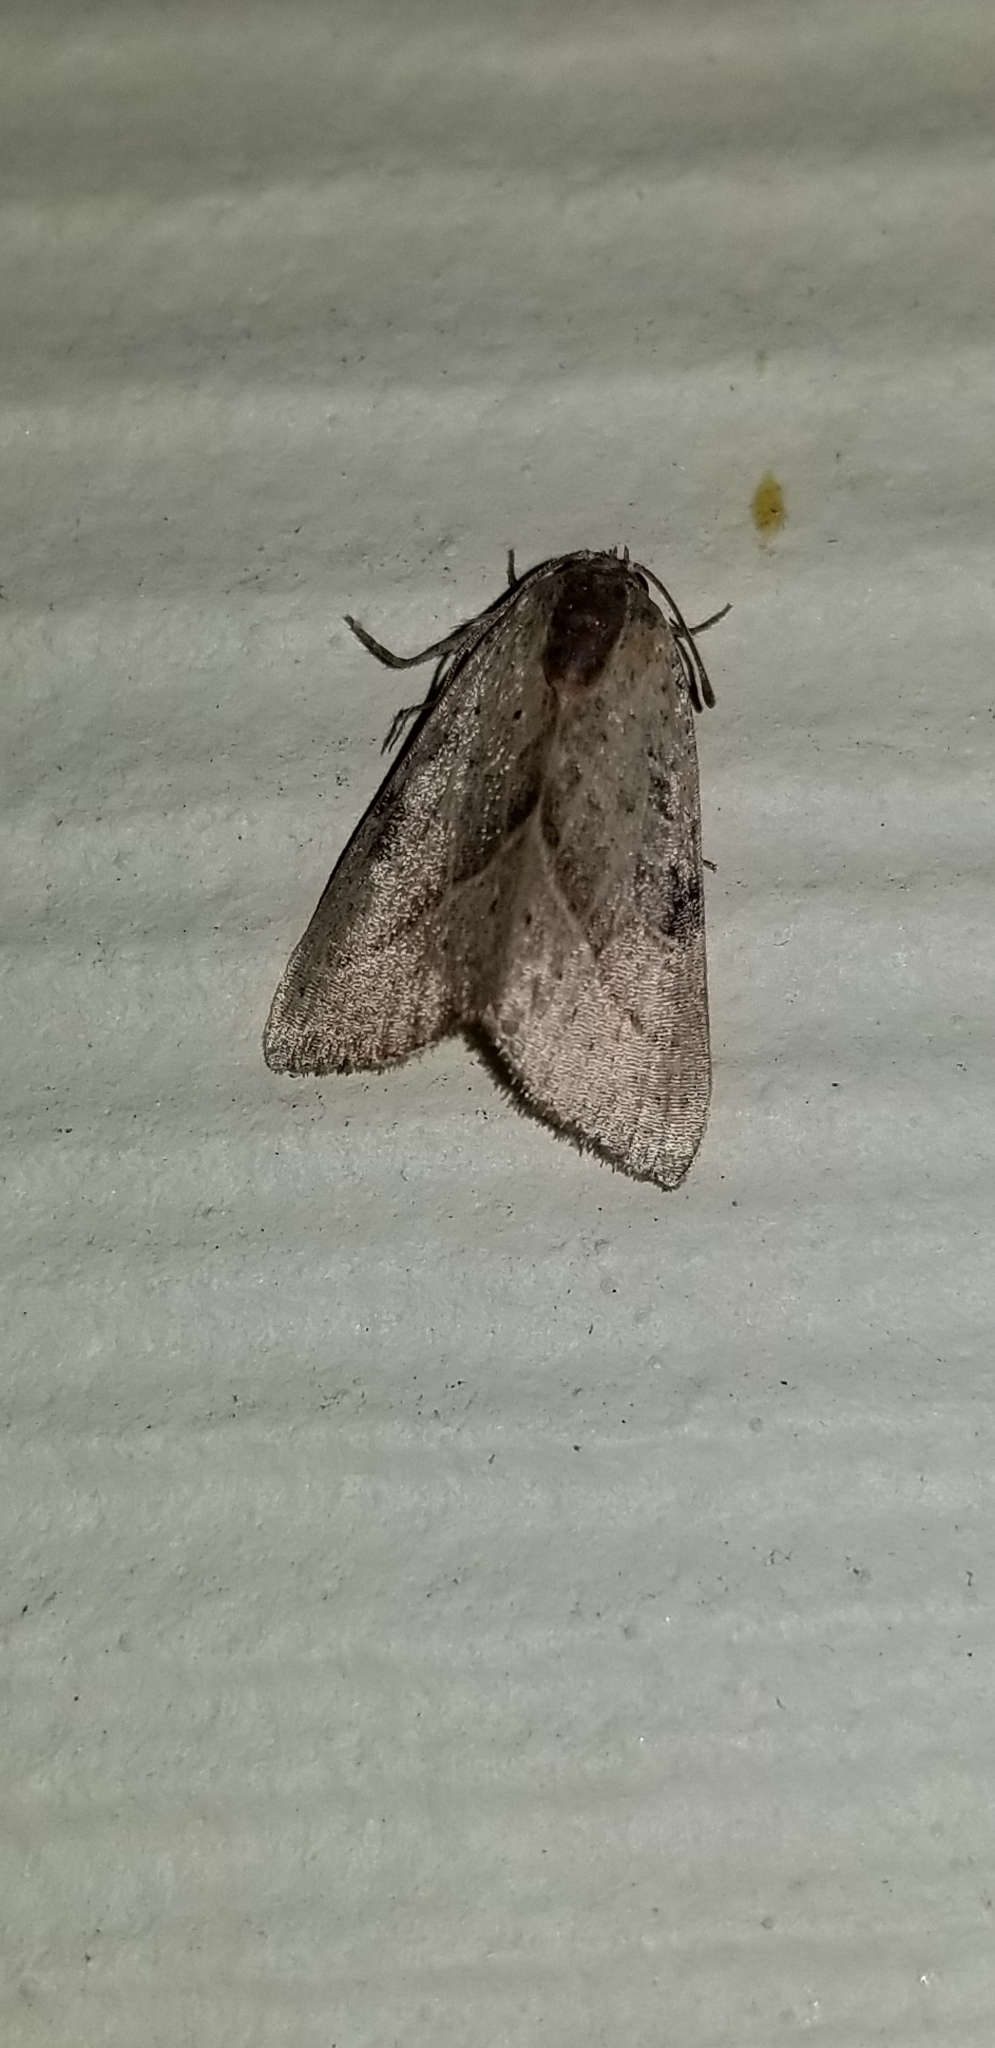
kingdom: Animalia
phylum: Arthropoda
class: Insecta
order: Lepidoptera
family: Noctuidae
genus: Galgula
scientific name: Galgula partita
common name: Wedgeling
